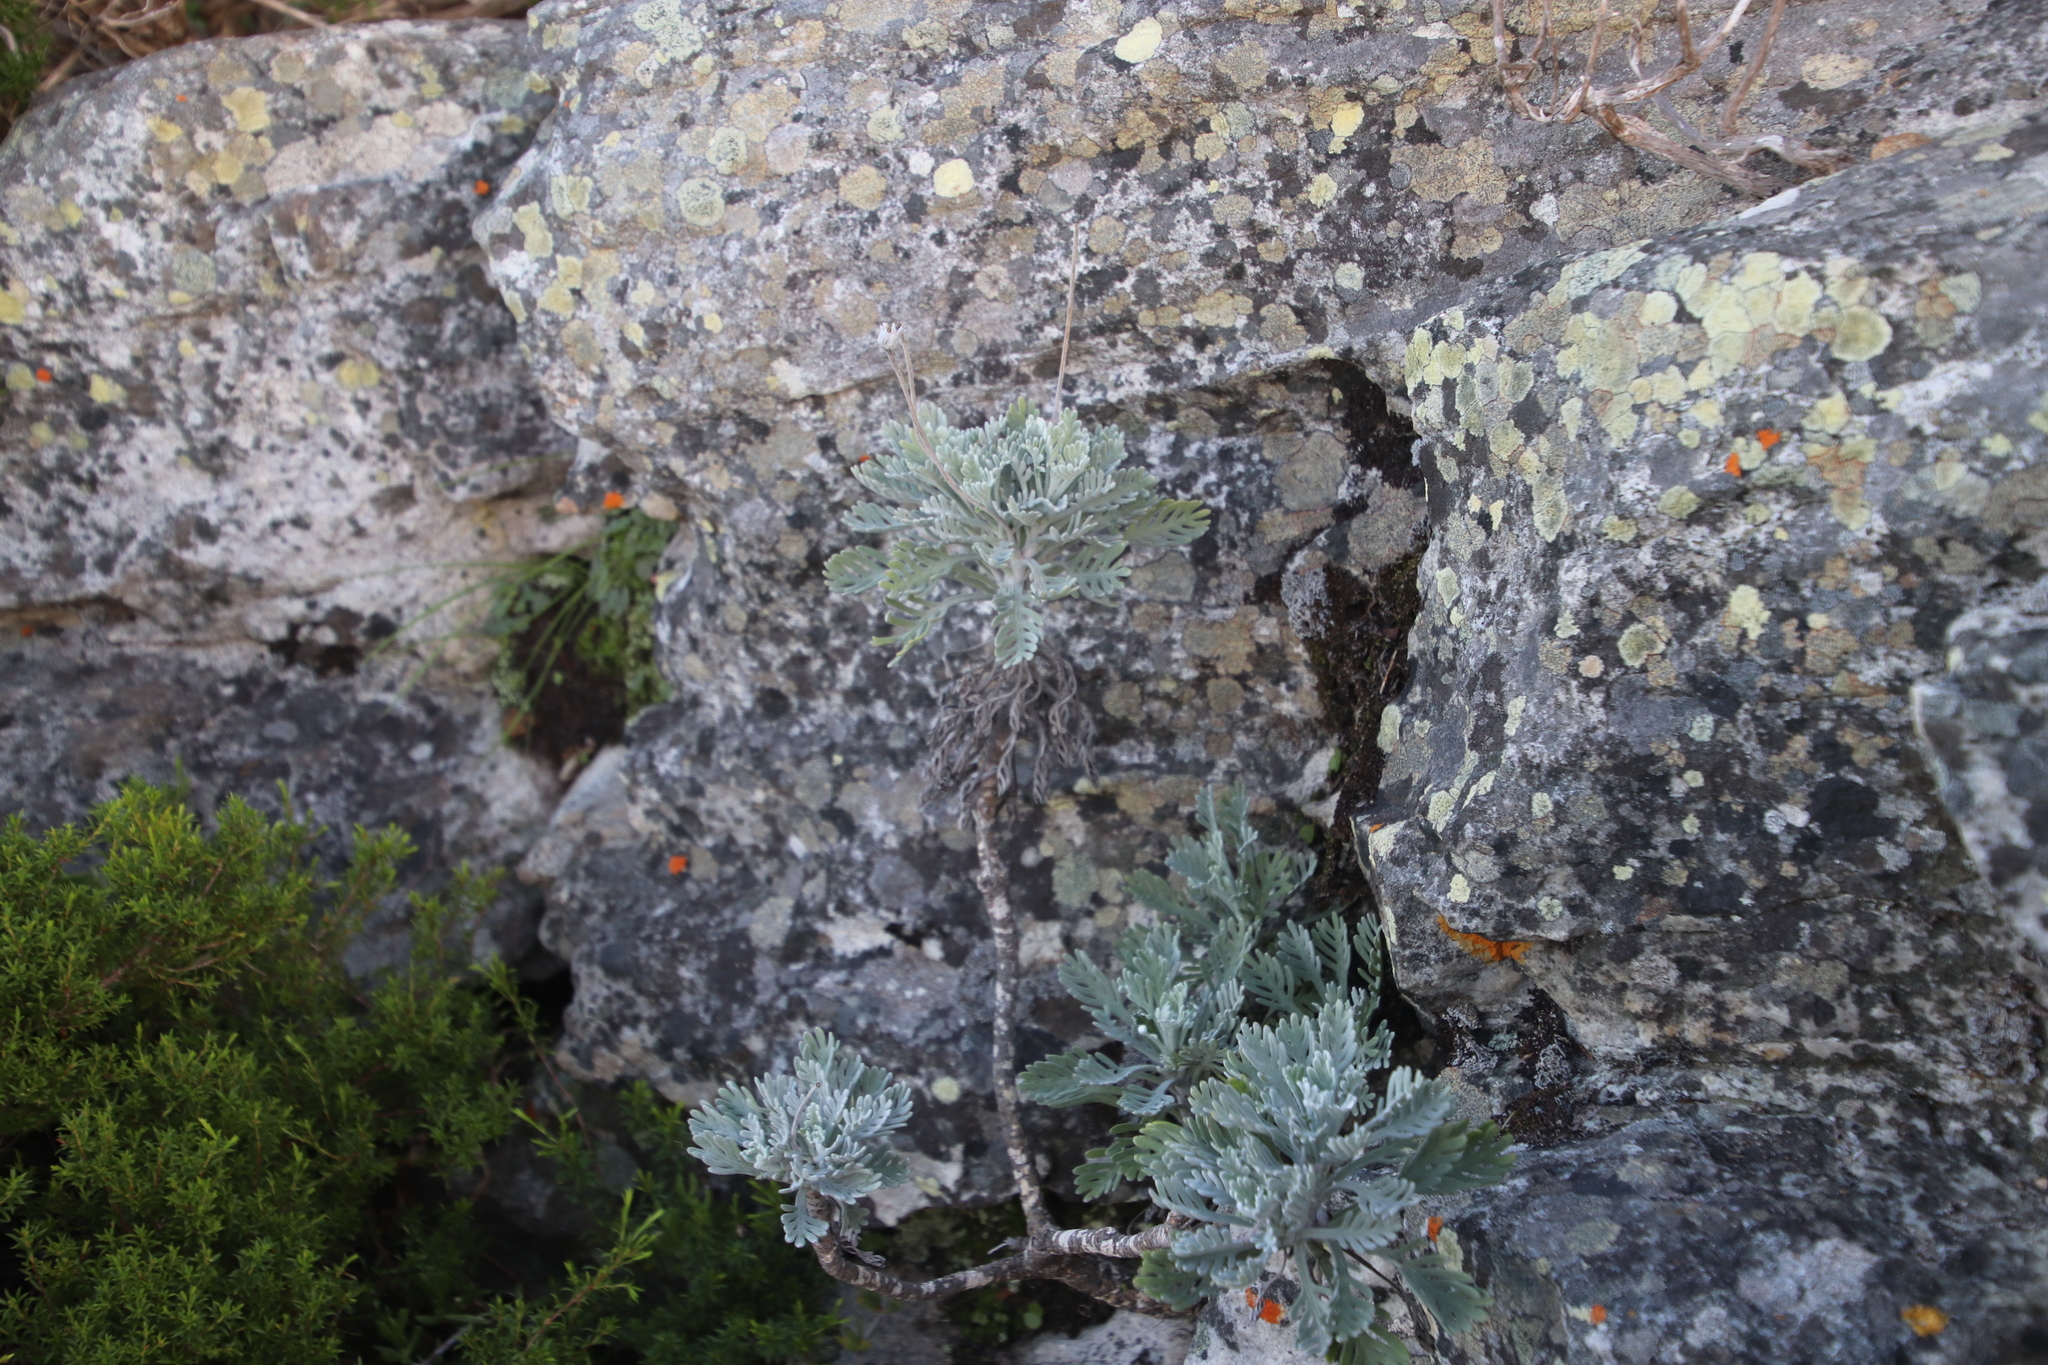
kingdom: Plantae
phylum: Tracheophyta
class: Magnoliopsida
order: Asterales
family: Asteraceae
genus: Euryops
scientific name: Euryops pectinatus
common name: Gray-leaf euryops
